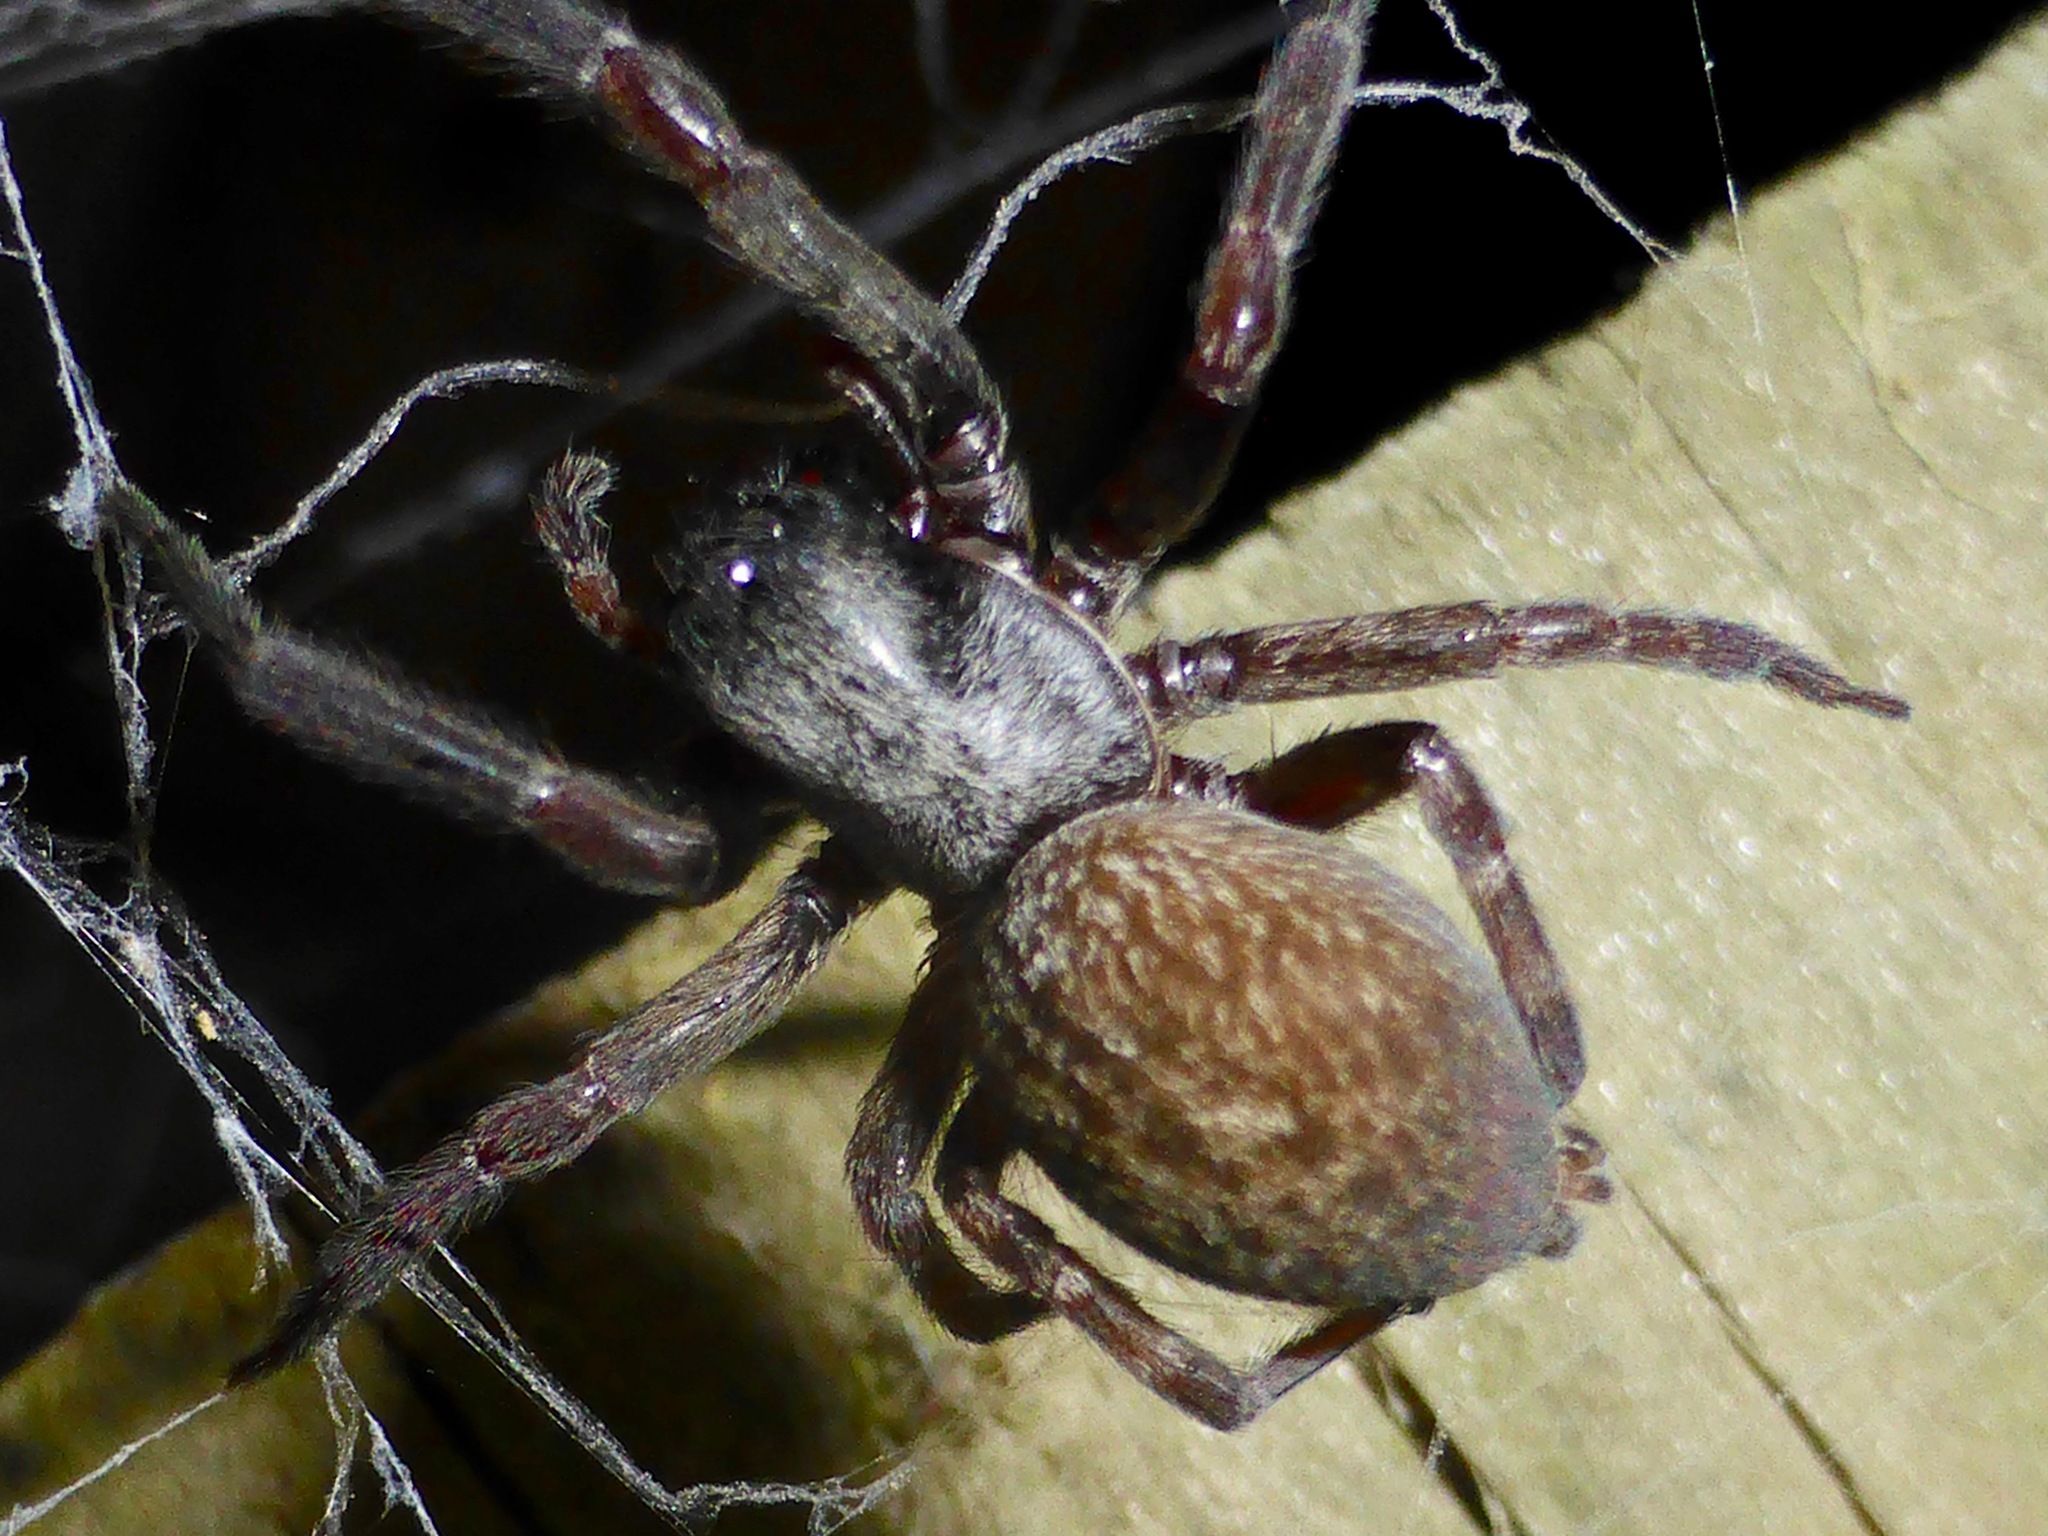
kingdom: Animalia
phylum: Arthropoda
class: Arachnida
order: Araneae
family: Desidae
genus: Badumna
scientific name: Badumna longinqua
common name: Gray house spider
